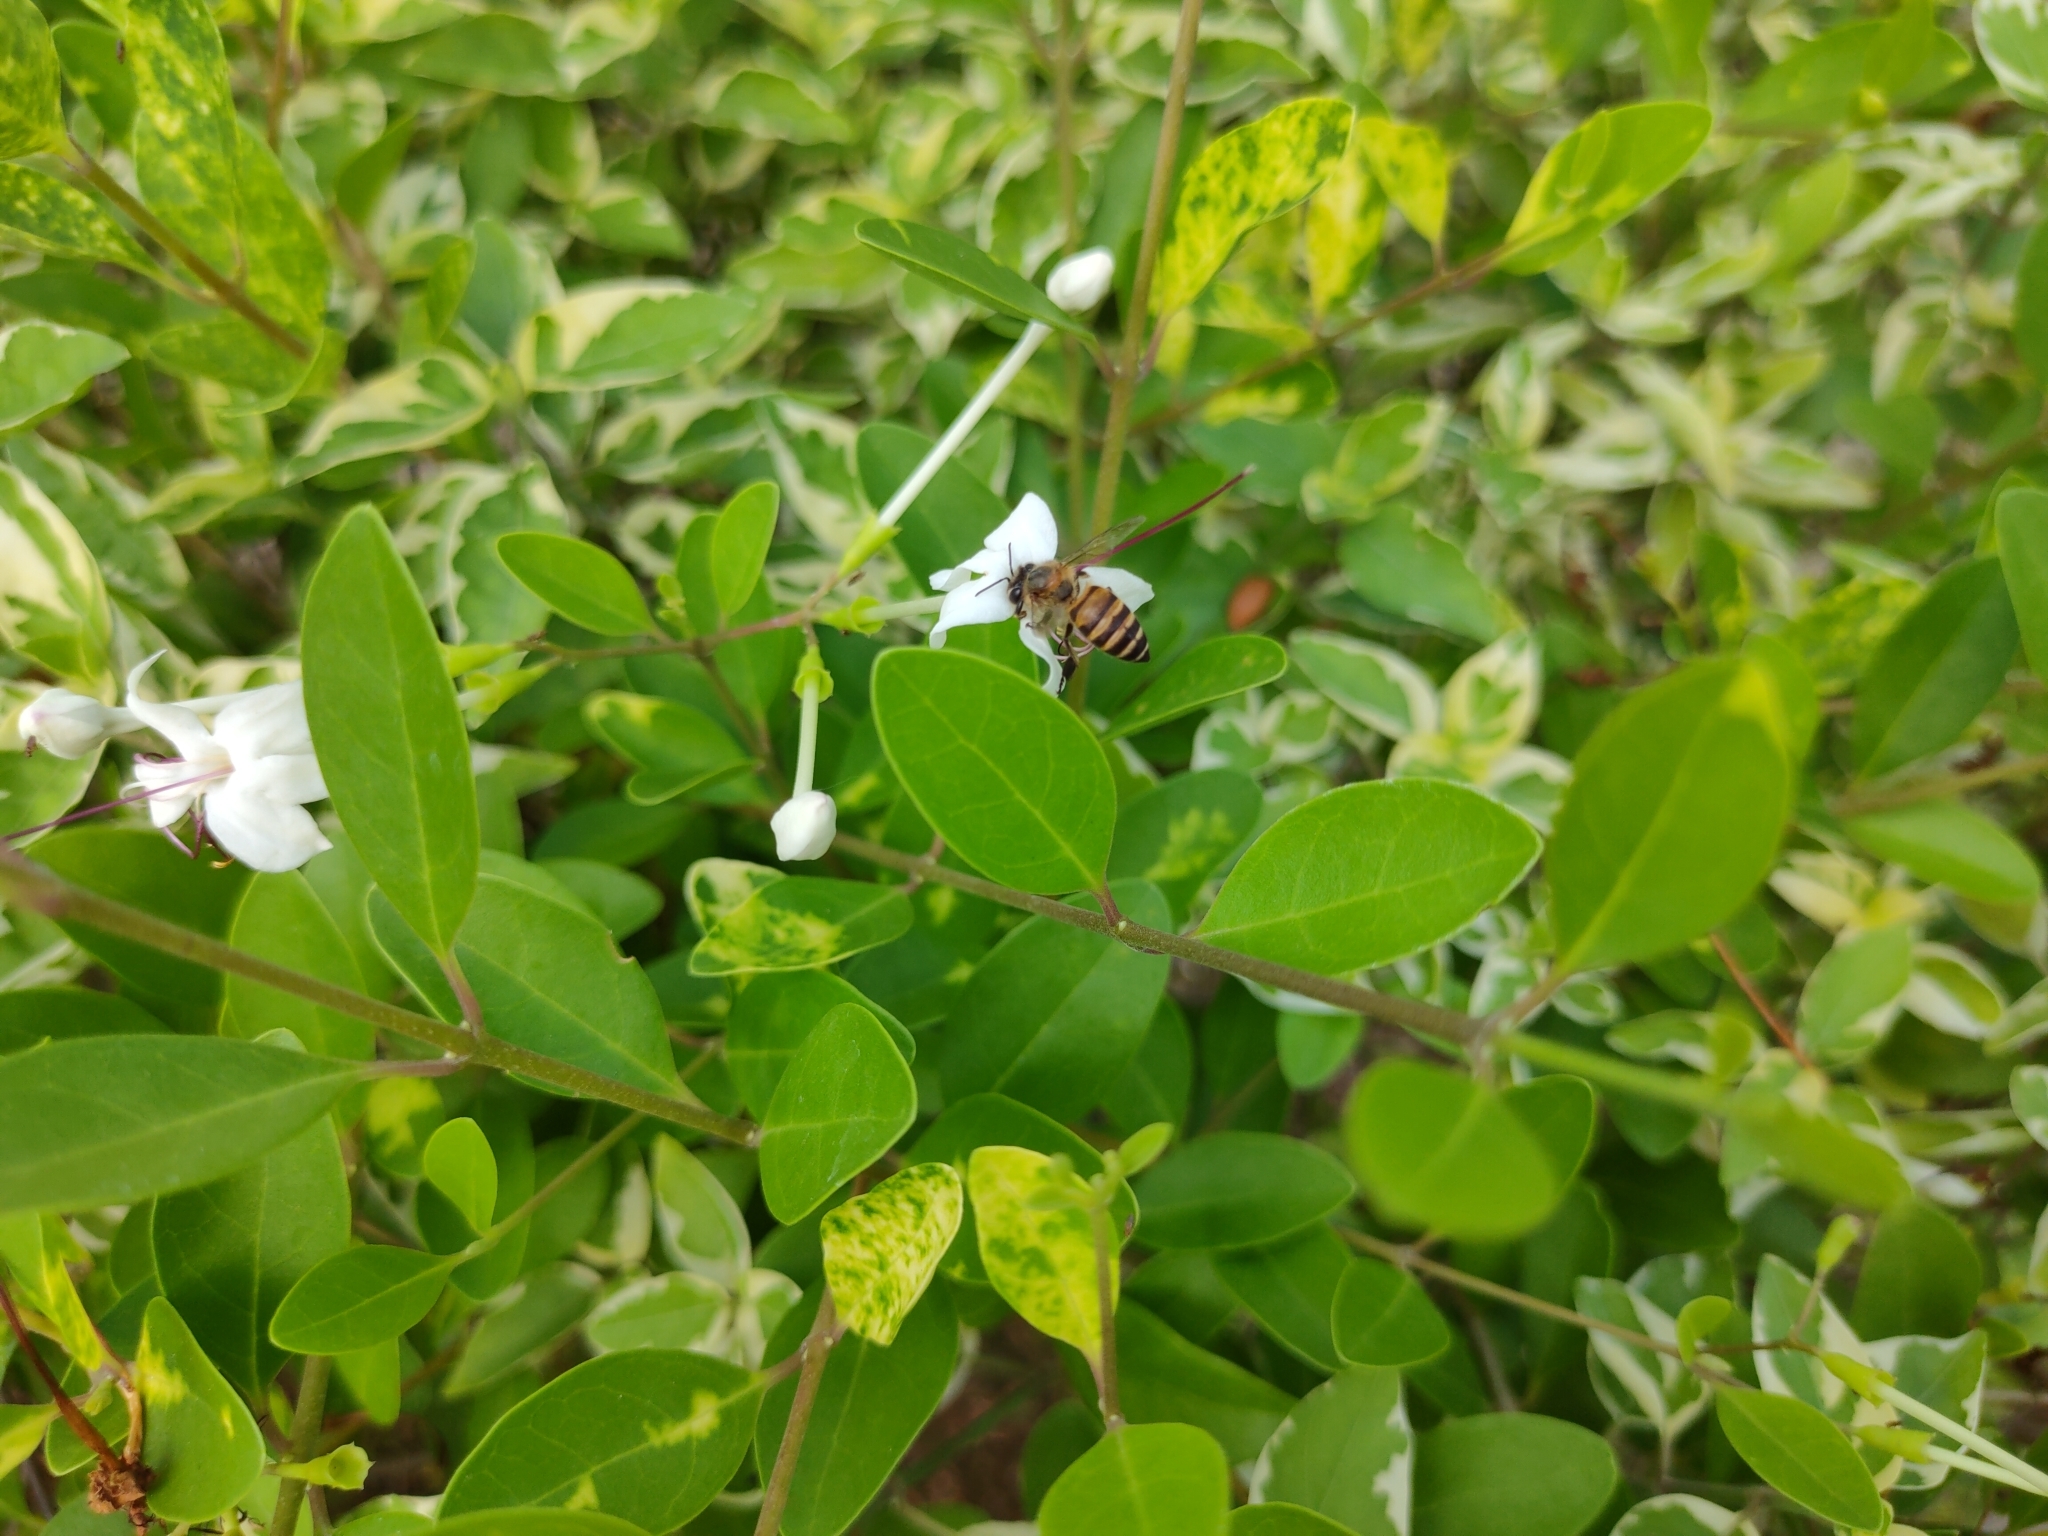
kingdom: Animalia
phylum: Arthropoda
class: Insecta
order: Hymenoptera
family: Apidae
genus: Apis
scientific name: Apis cerana
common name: Honey bee
